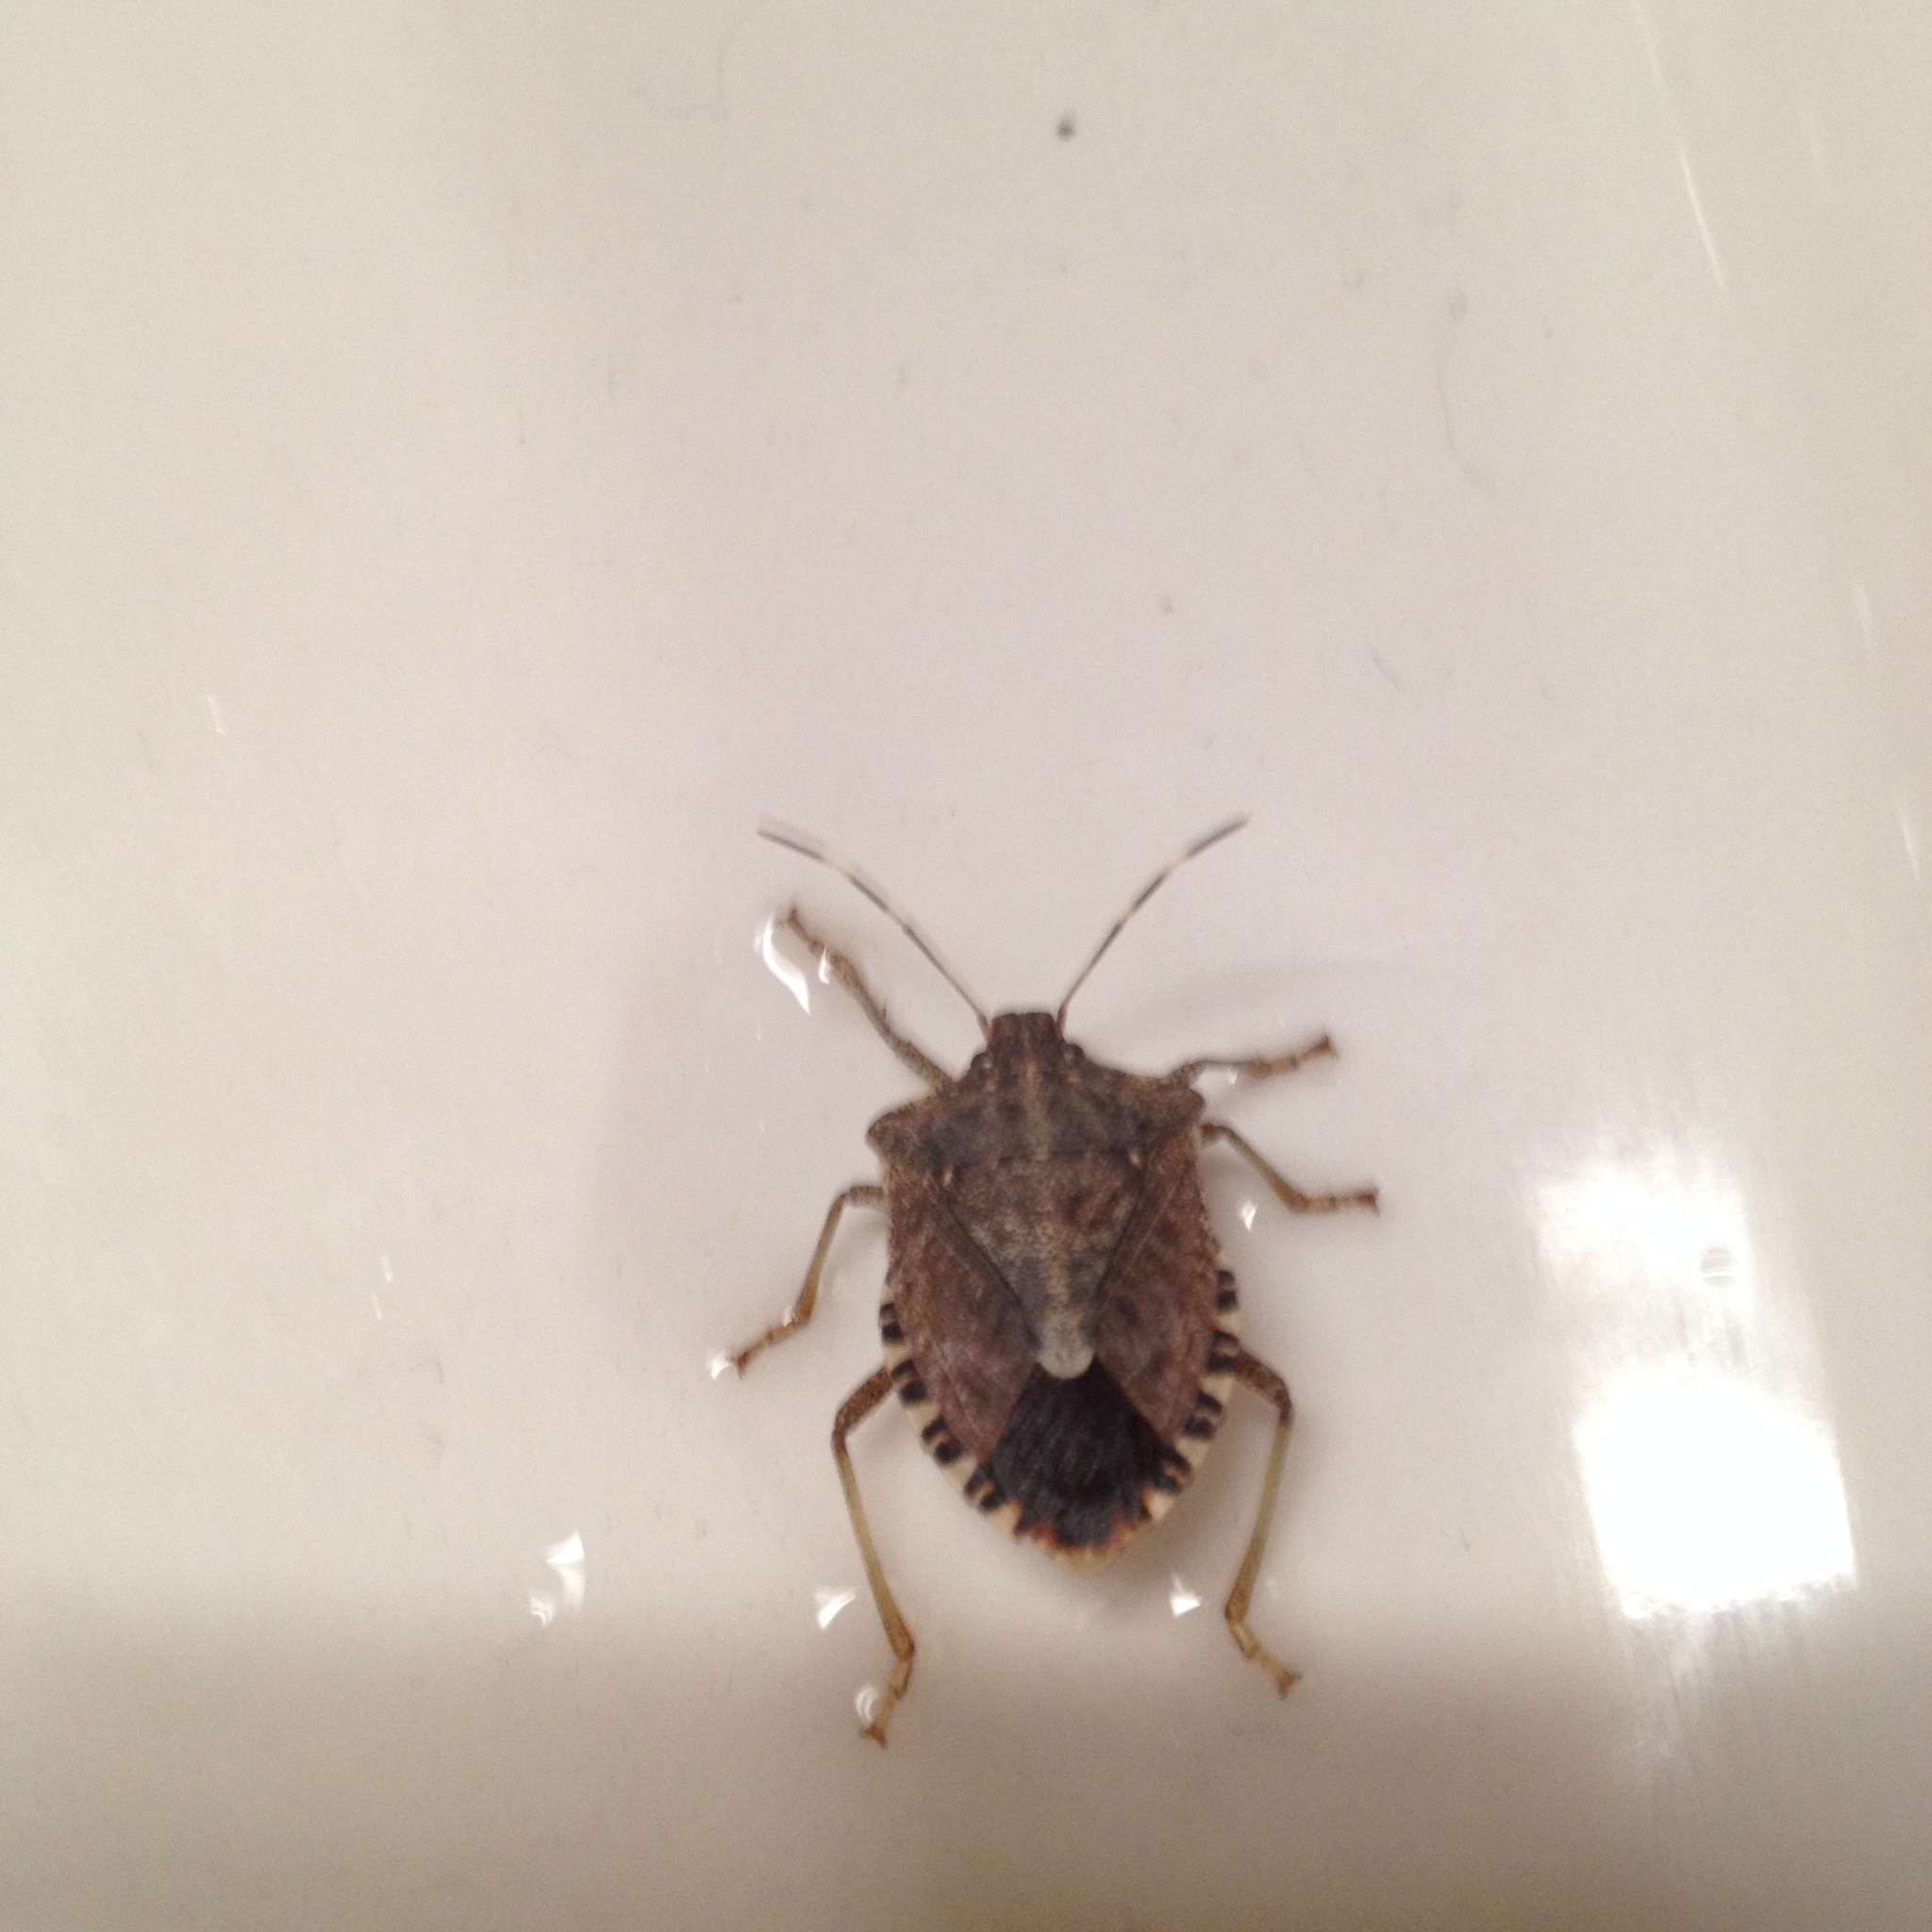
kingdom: Animalia
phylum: Arthropoda
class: Insecta
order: Hemiptera
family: Pentatomidae
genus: Halyomorpha
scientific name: Halyomorpha halys
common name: Brown marmorated stink bug
